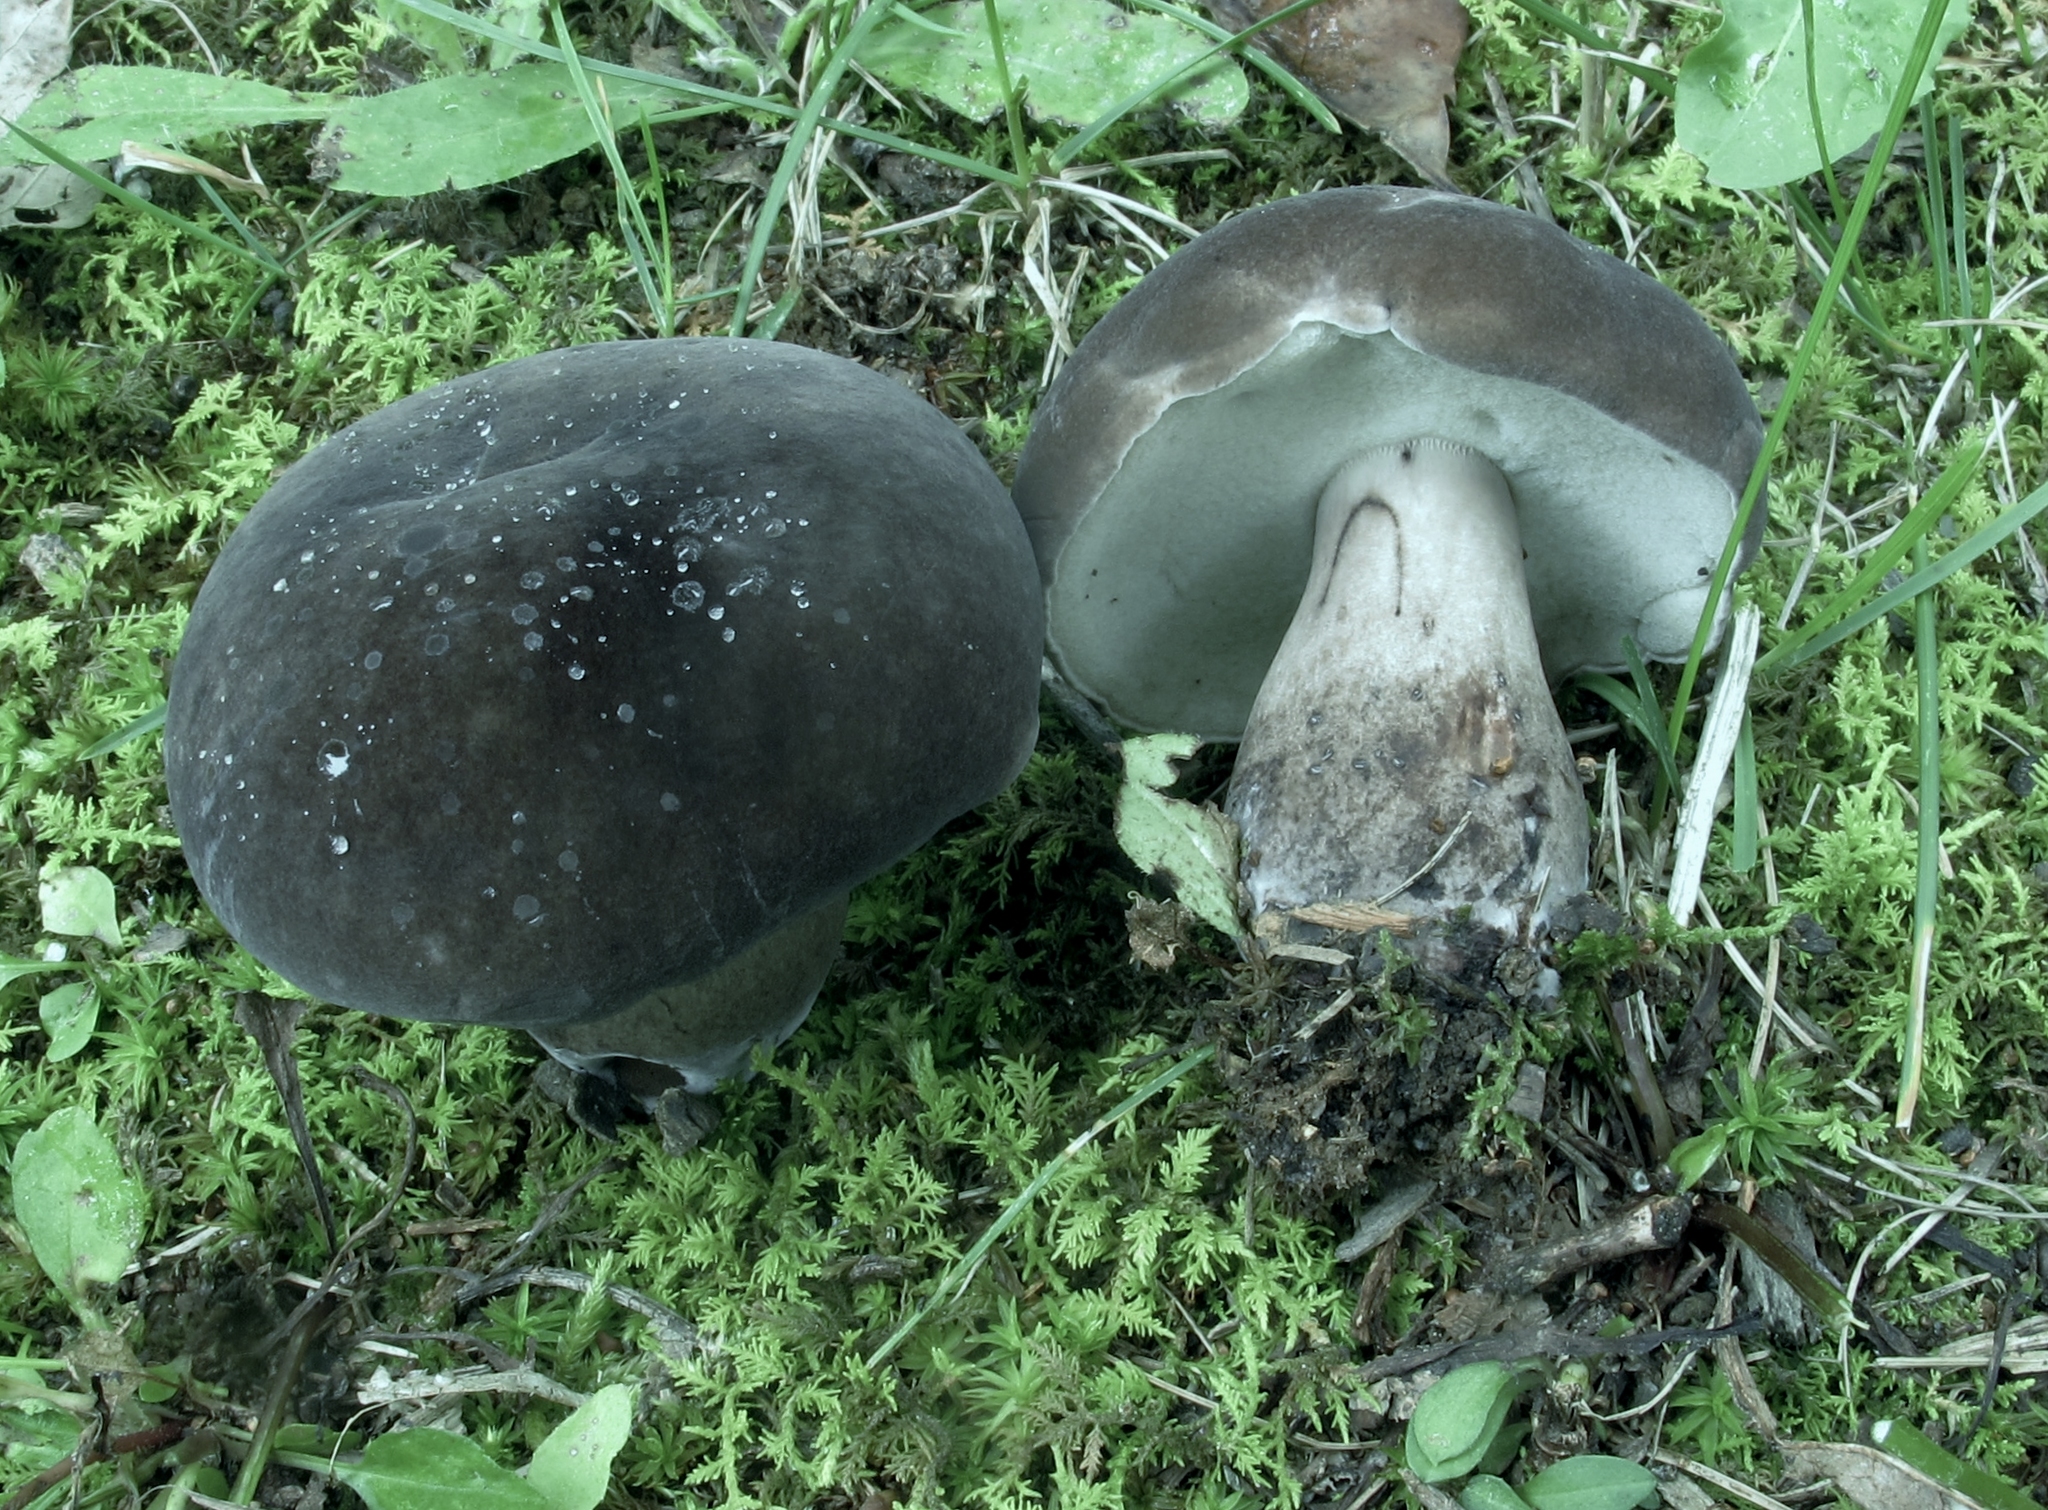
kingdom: Fungi
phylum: Basidiomycota
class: Agaricomycetes
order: Boletales
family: Boletaceae
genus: Tylopilus
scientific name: Tylopilus alboater
